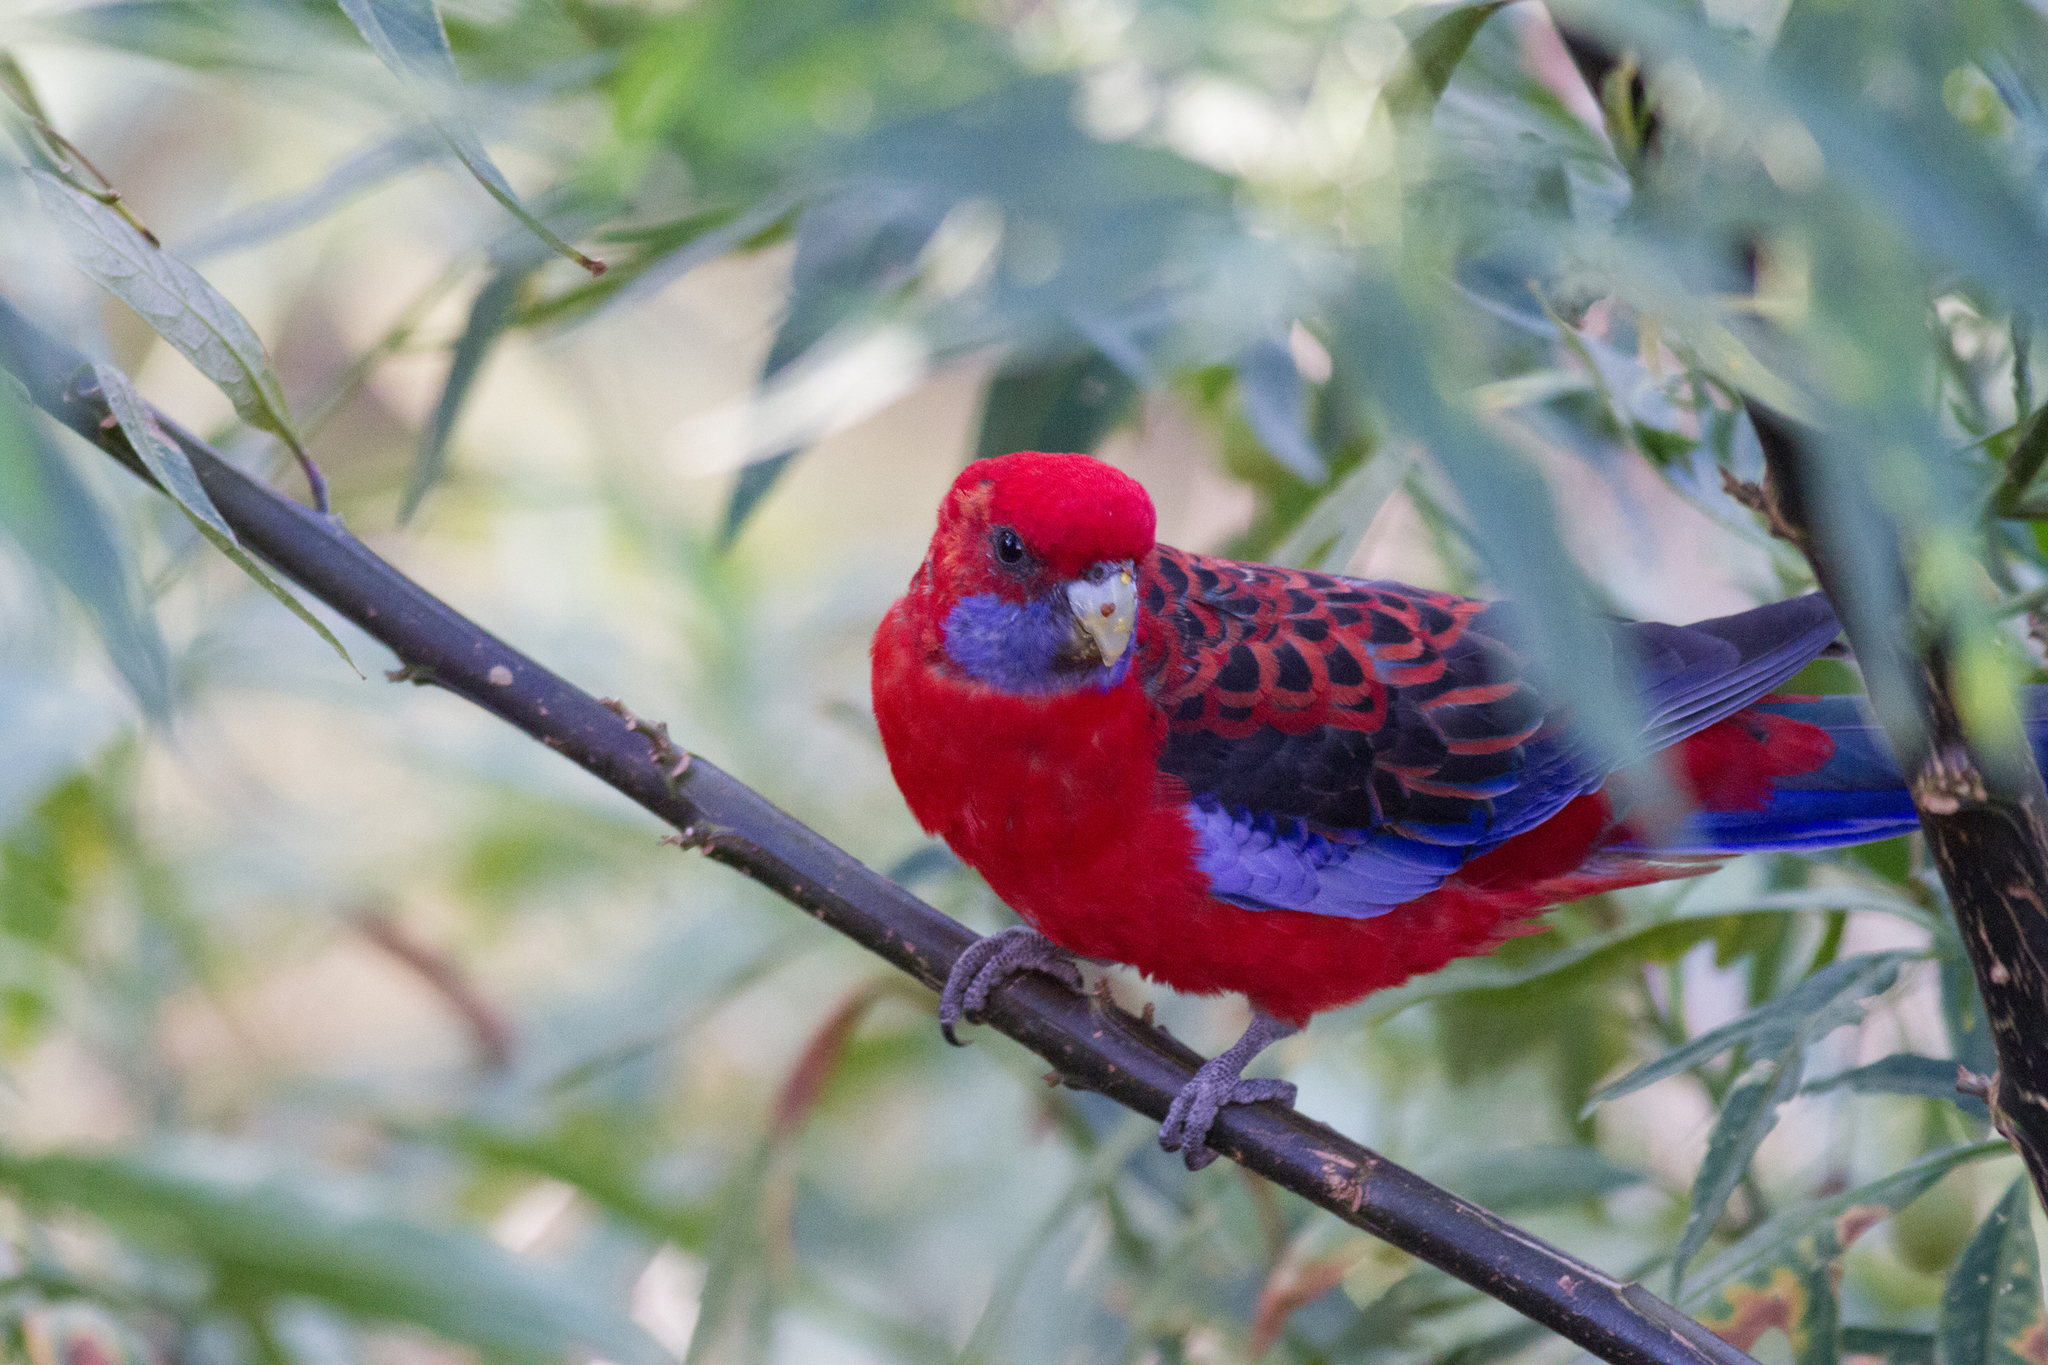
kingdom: Animalia
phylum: Chordata
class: Aves
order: Psittaciformes
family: Psittacidae
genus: Platycercus
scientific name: Platycercus elegans
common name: Crimson rosella
